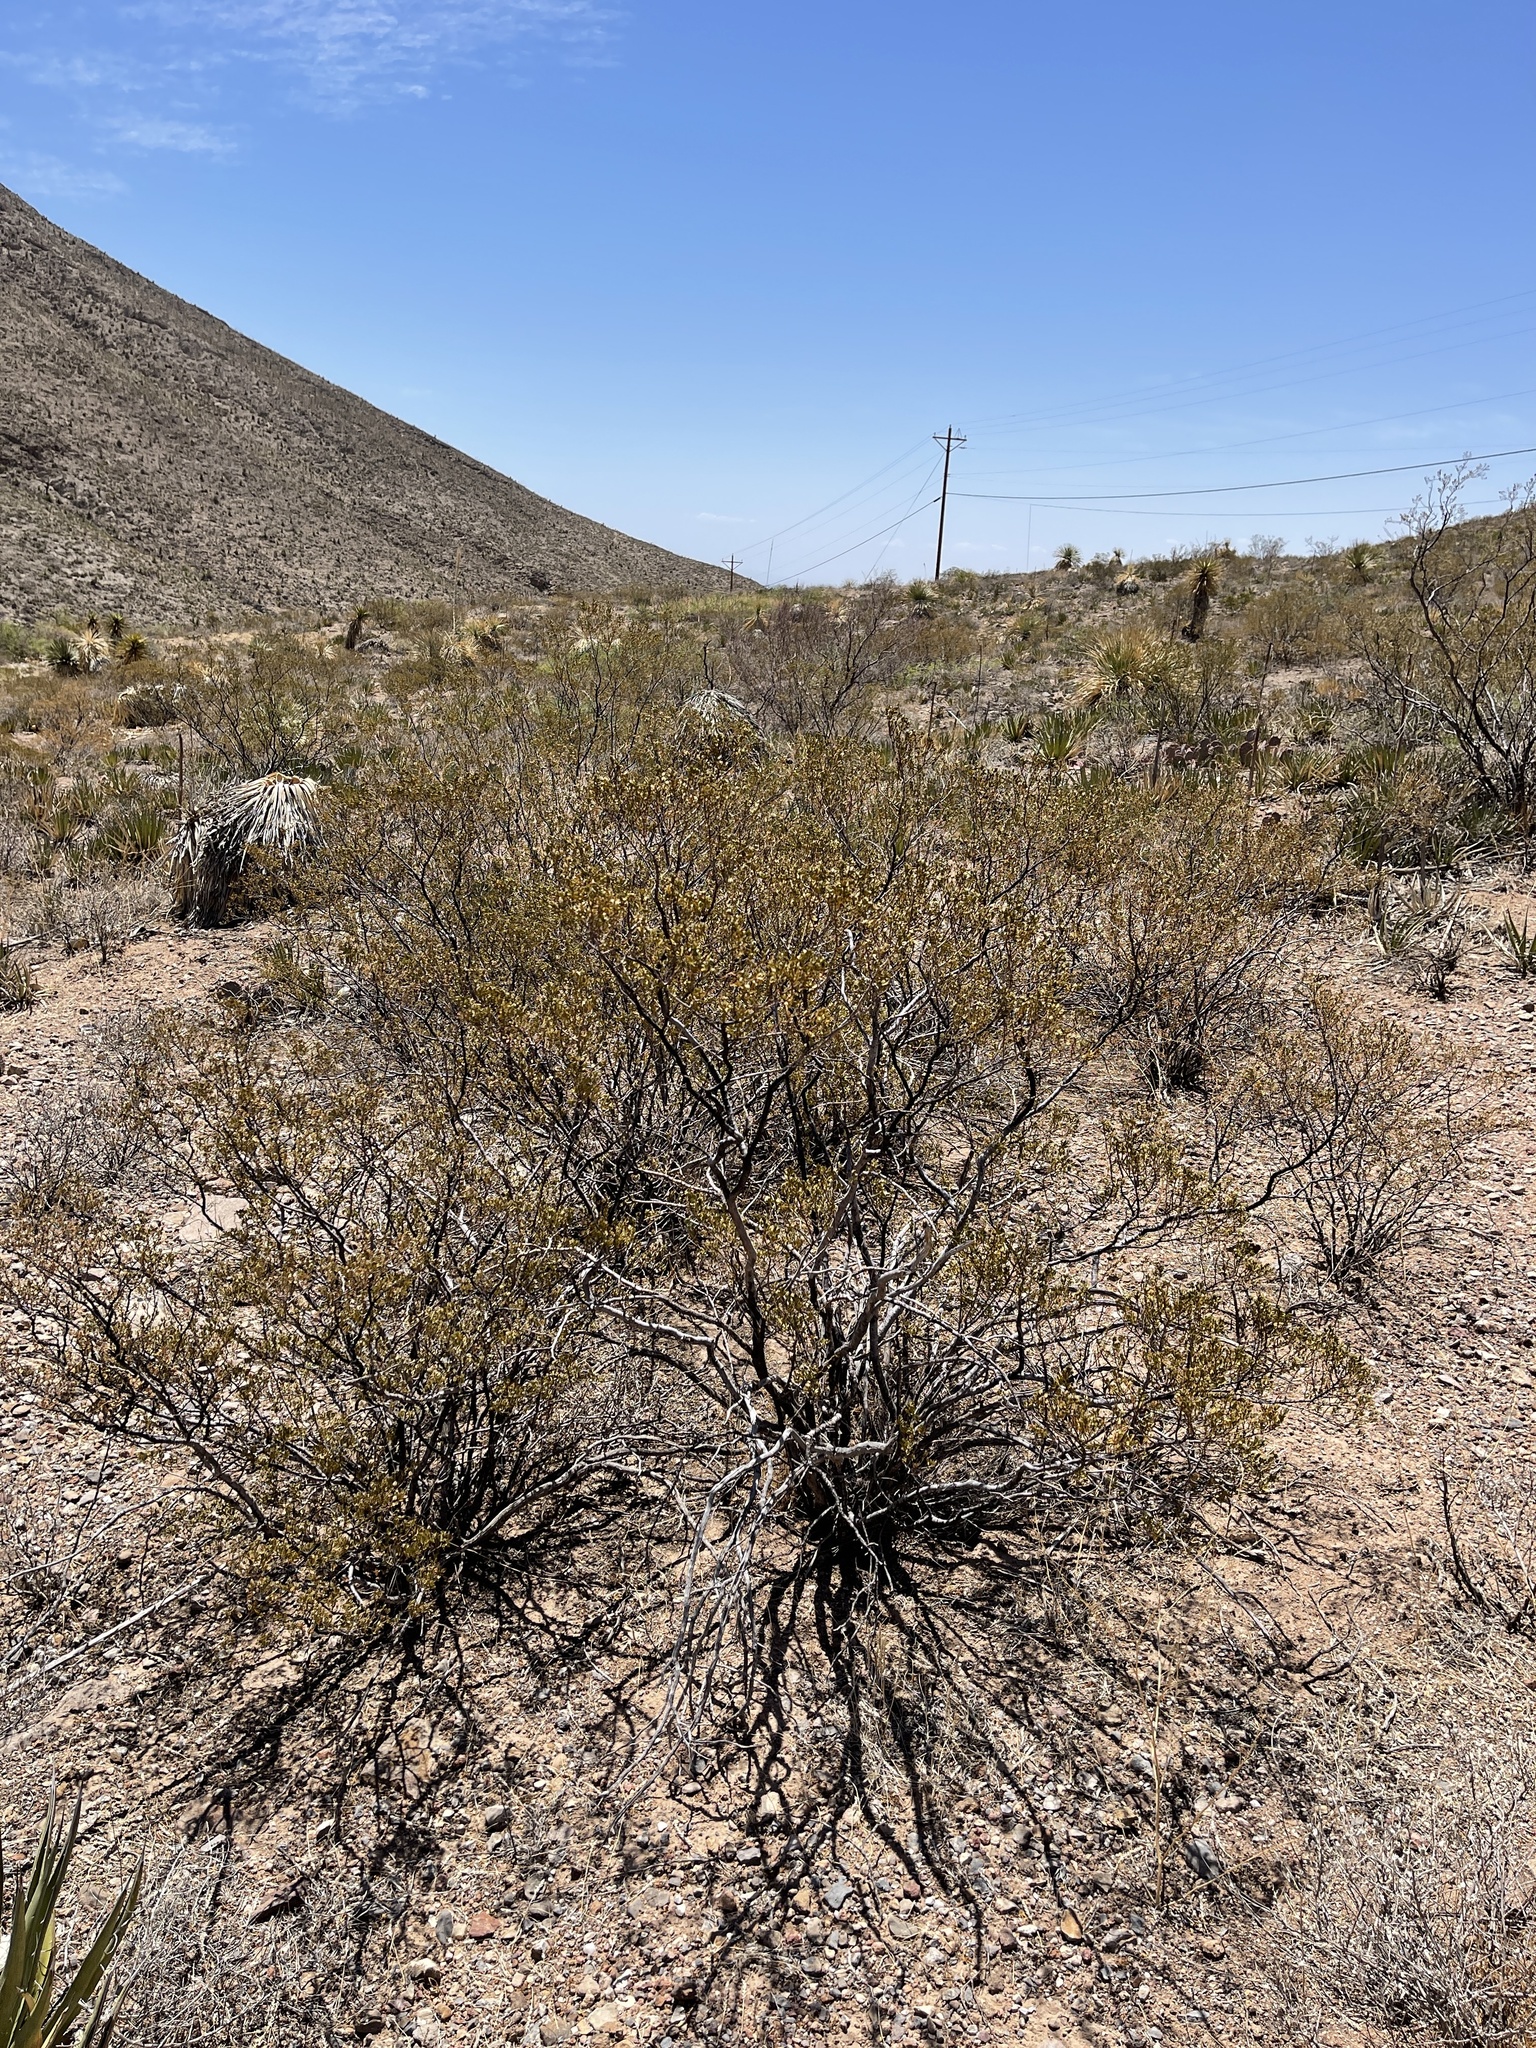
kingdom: Plantae
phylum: Tracheophyta
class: Magnoliopsida
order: Zygophyllales
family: Zygophyllaceae
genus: Larrea
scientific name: Larrea tridentata
